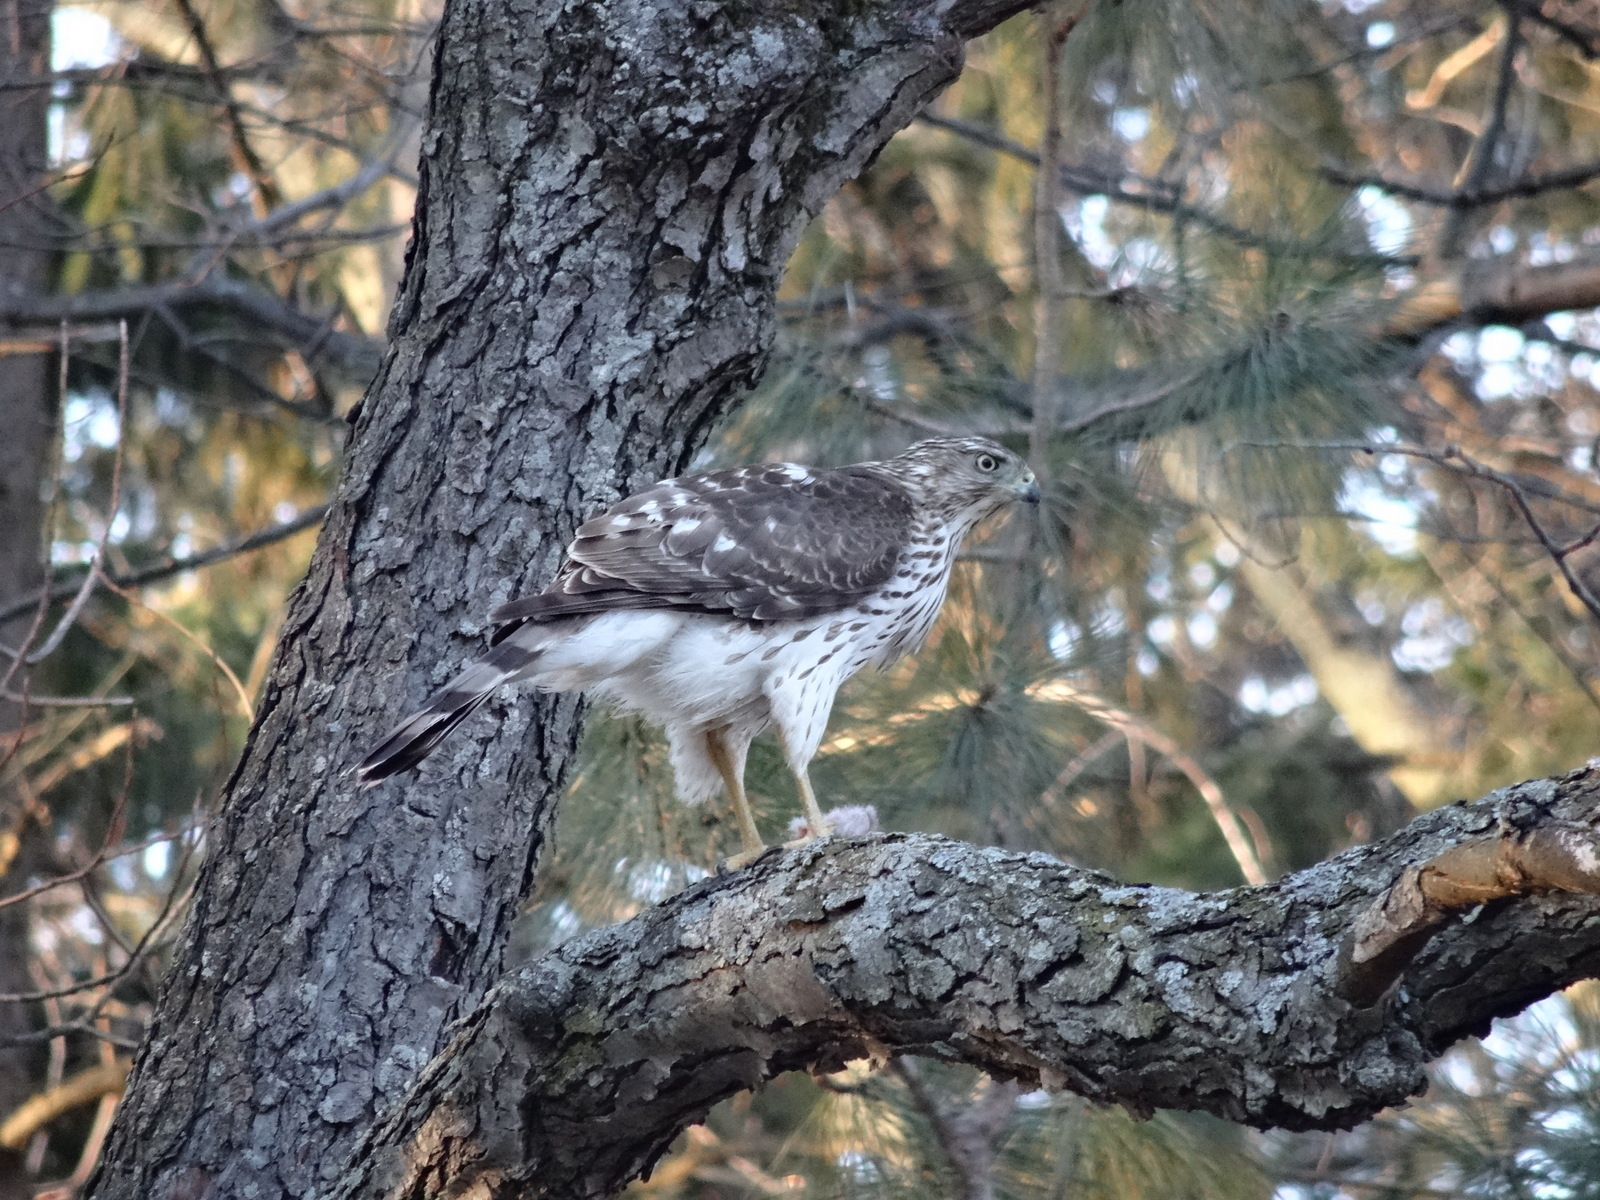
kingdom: Animalia
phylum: Chordata
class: Aves
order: Accipitriformes
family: Accipitridae
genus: Accipiter
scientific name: Accipiter cooperii
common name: Cooper's hawk
